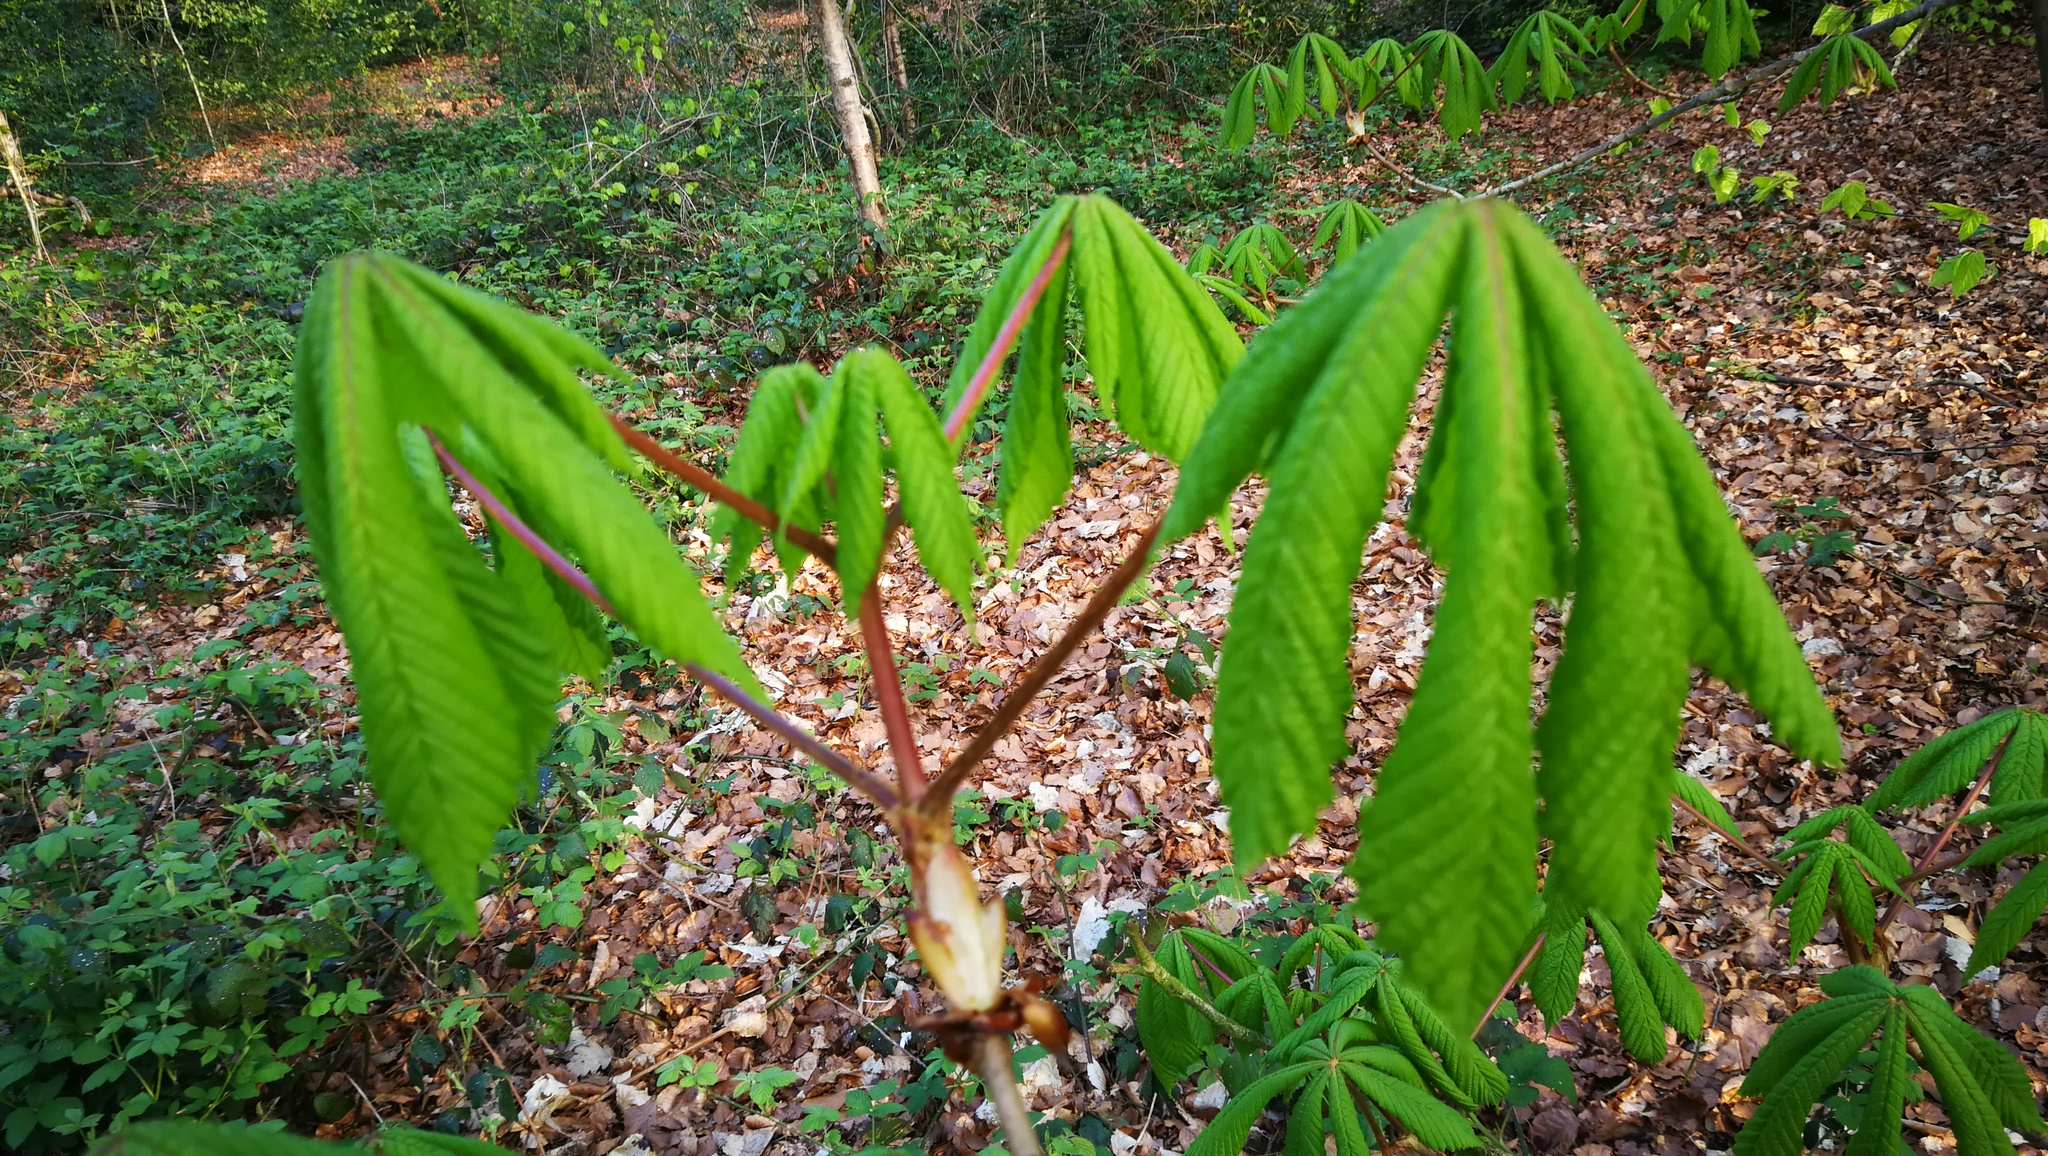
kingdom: Plantae
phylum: Tracheophyta
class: Magnoliopsida
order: Sapindales
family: Sapindaceae
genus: Aesculus
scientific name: Aesculus hippocastanum
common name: Horse-chestnut
